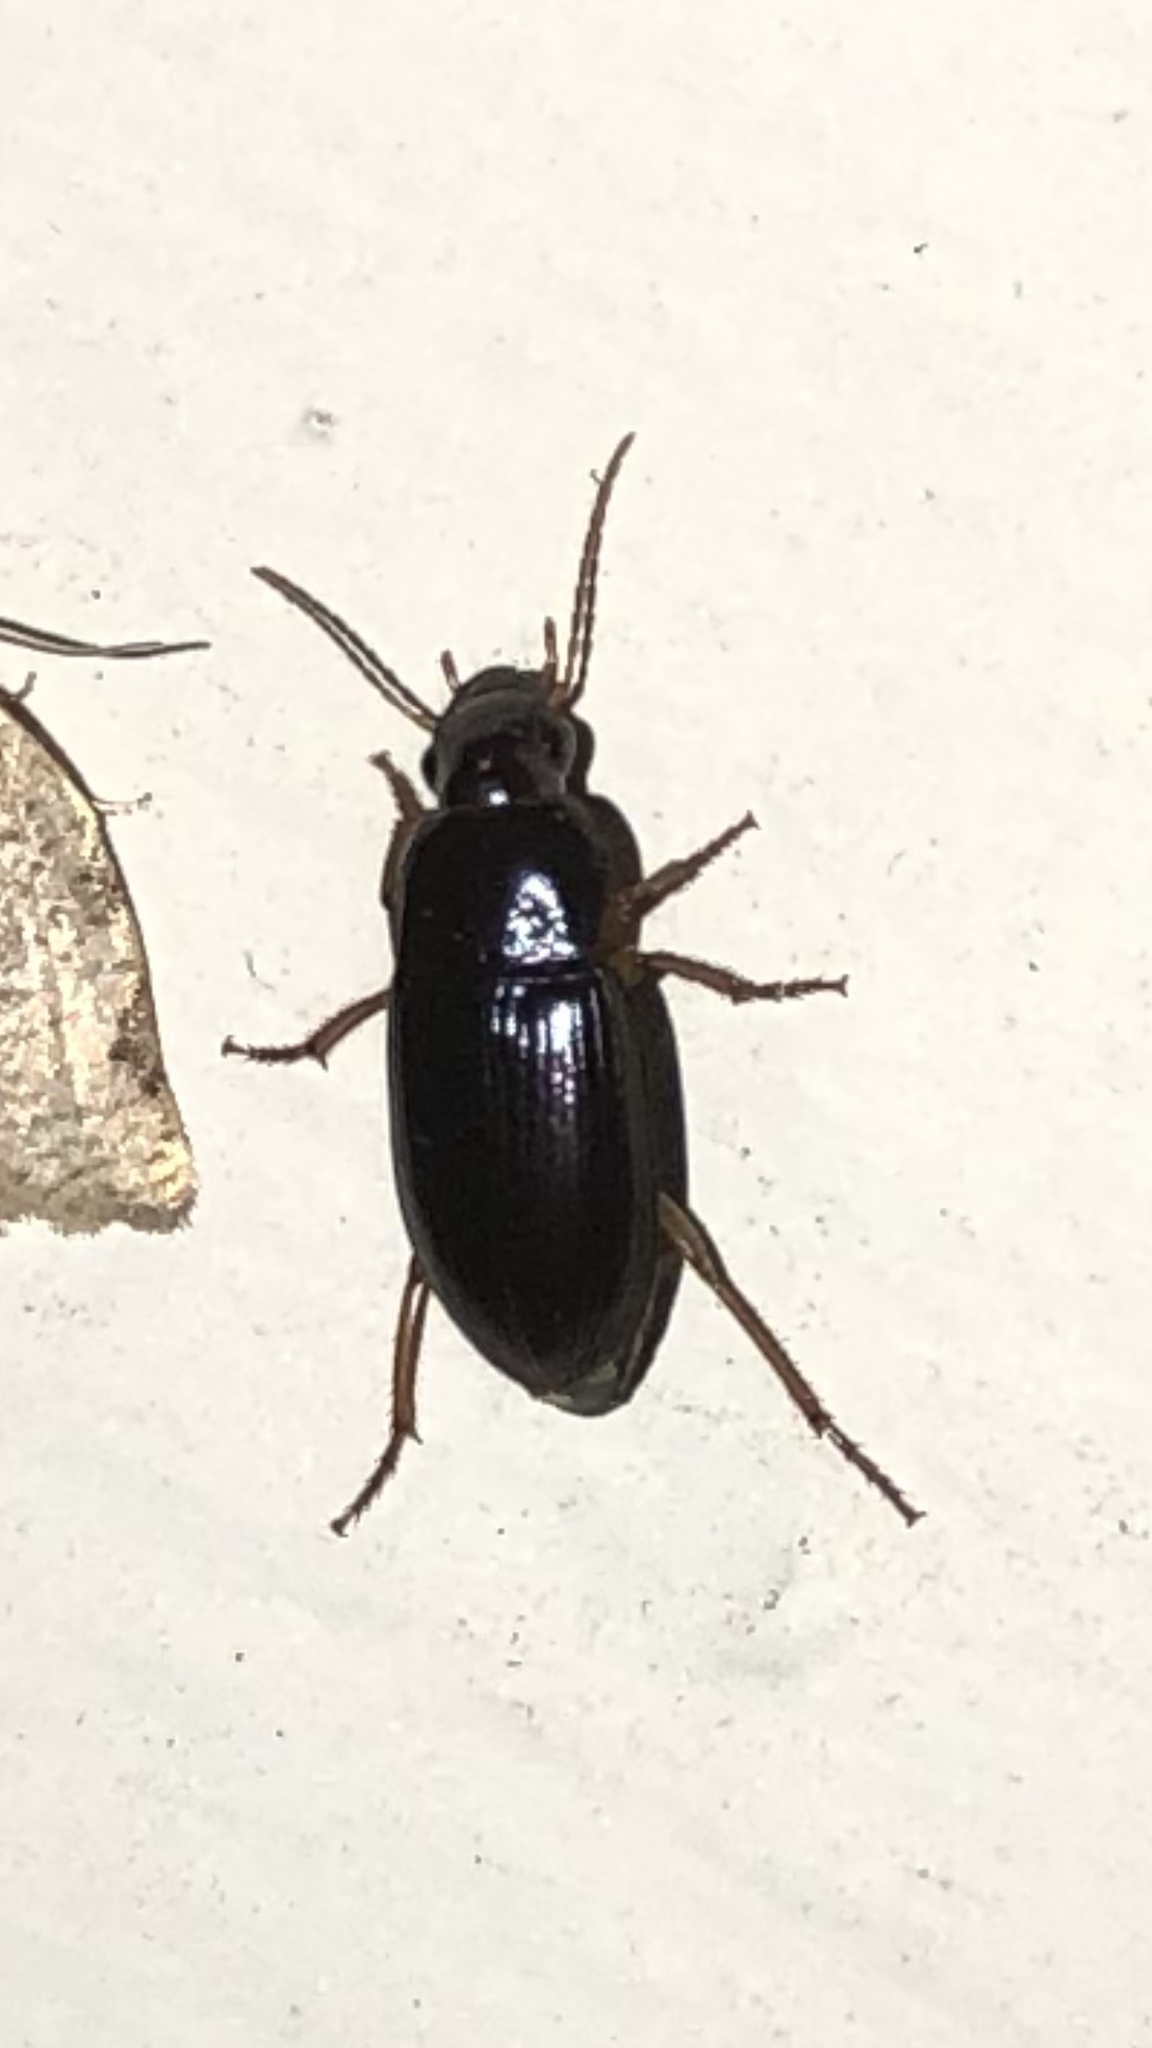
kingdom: Animalia
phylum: Arthropoda
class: Insecta
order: Coleoptera
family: Carabidae
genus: Notiobia
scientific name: Notiobia terminata
